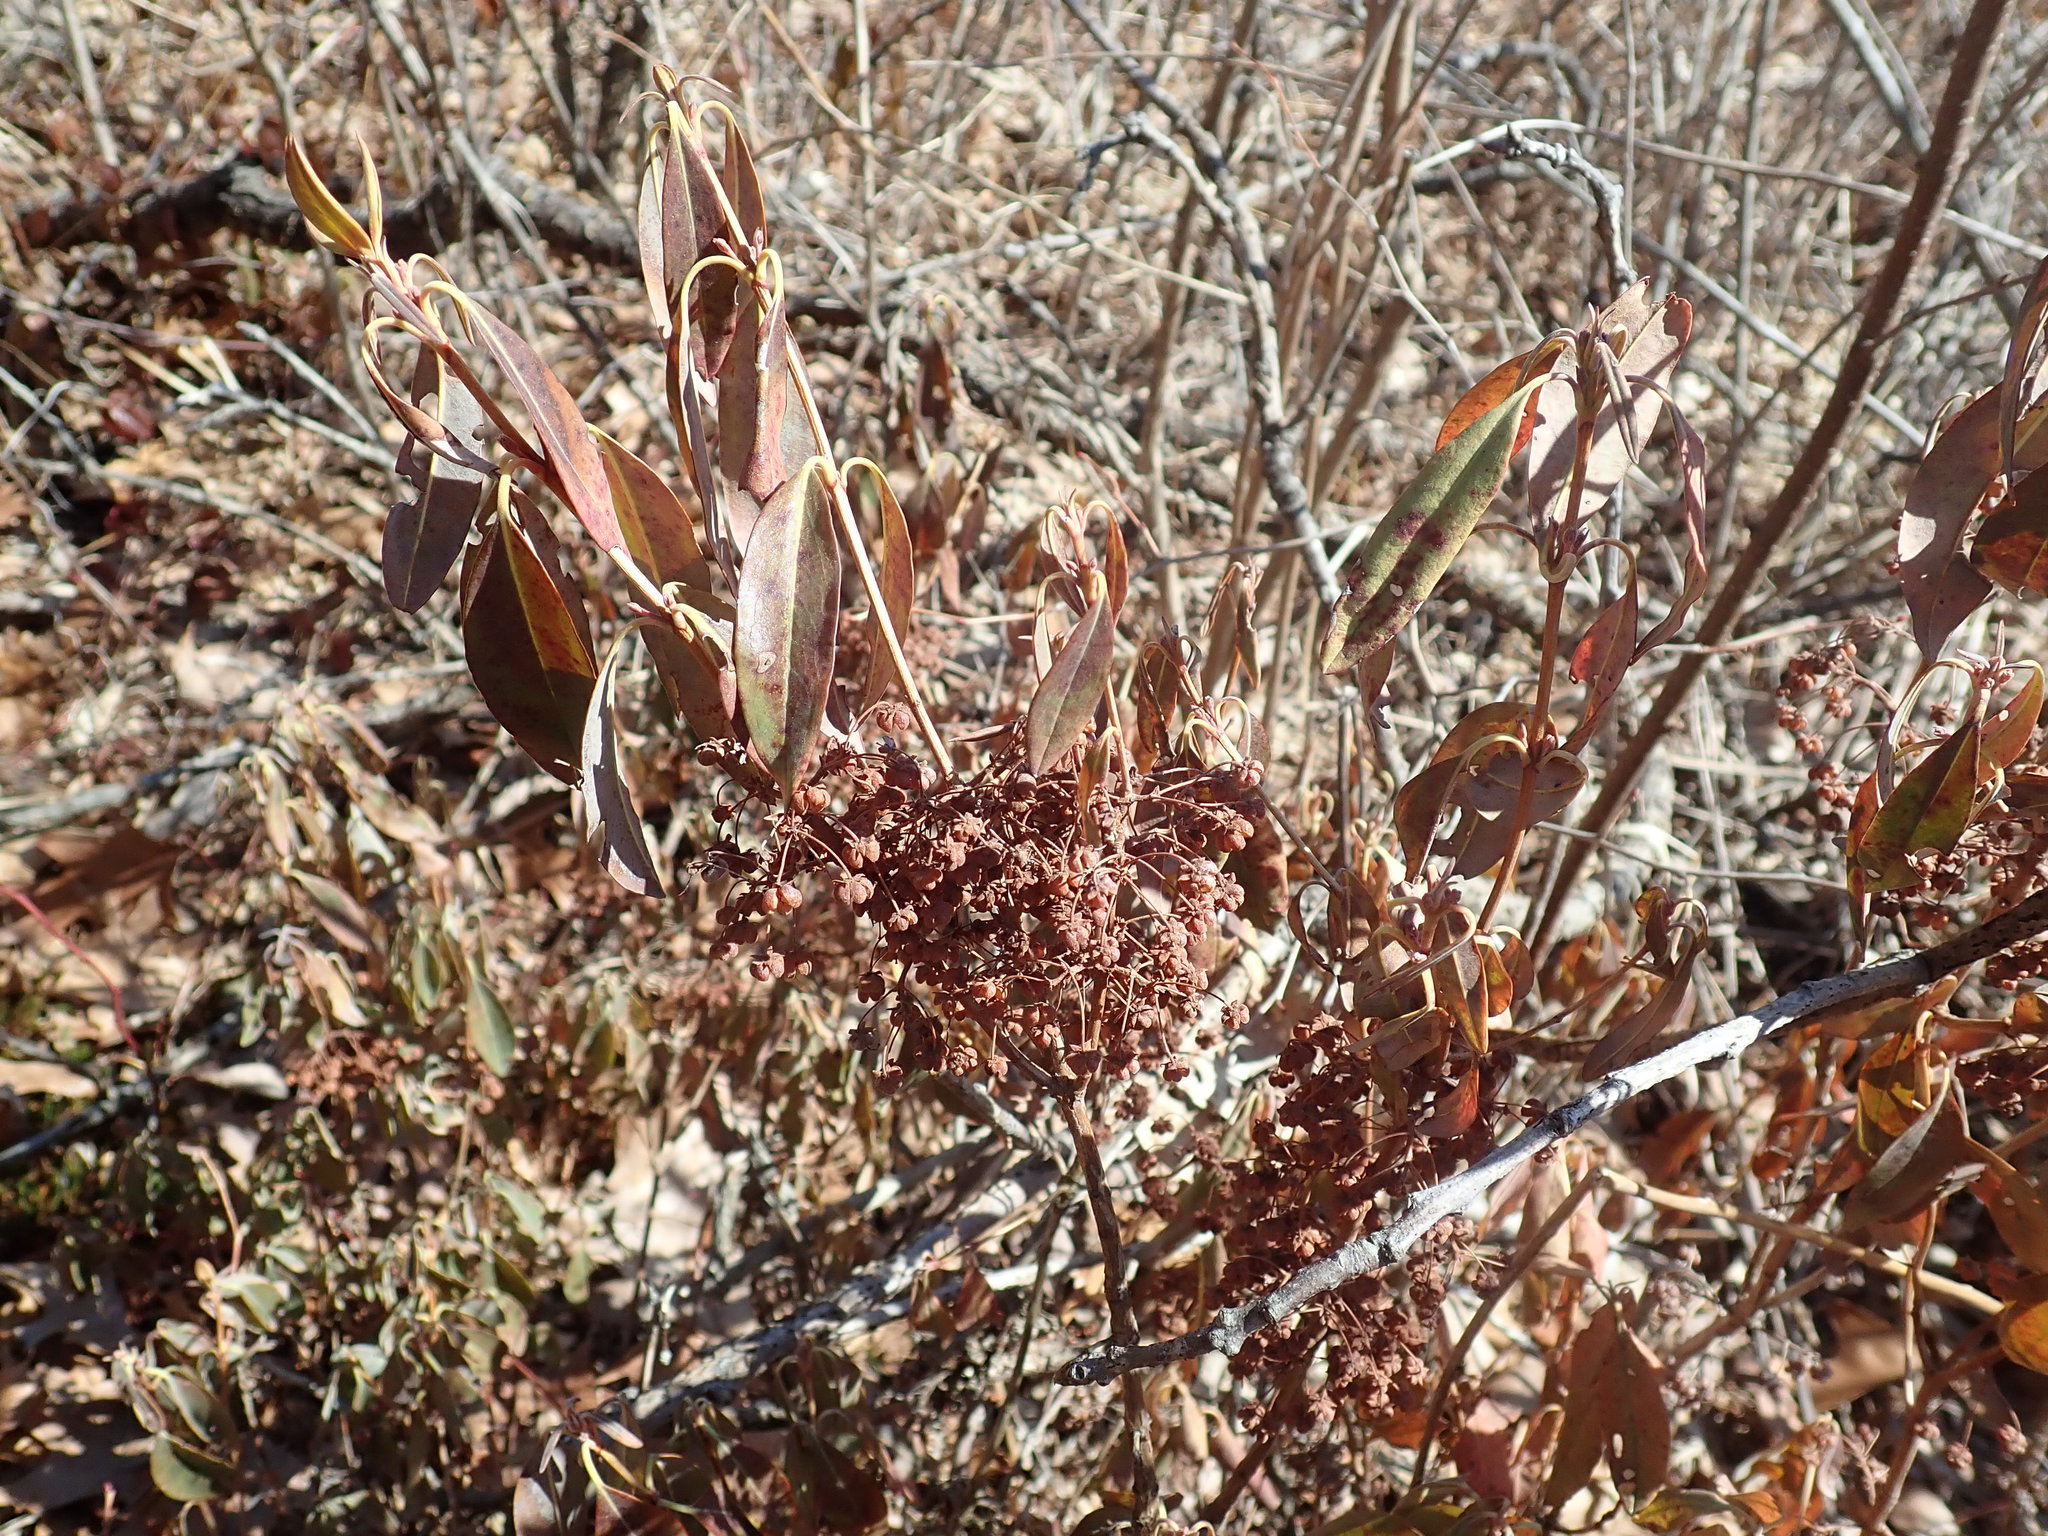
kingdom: Plantae
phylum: Tracheophyta
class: Magnoliopsida
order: Ericales
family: Ericaceae
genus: Kalmia
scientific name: Kalmia angustifolia
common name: Sheep-laurel
